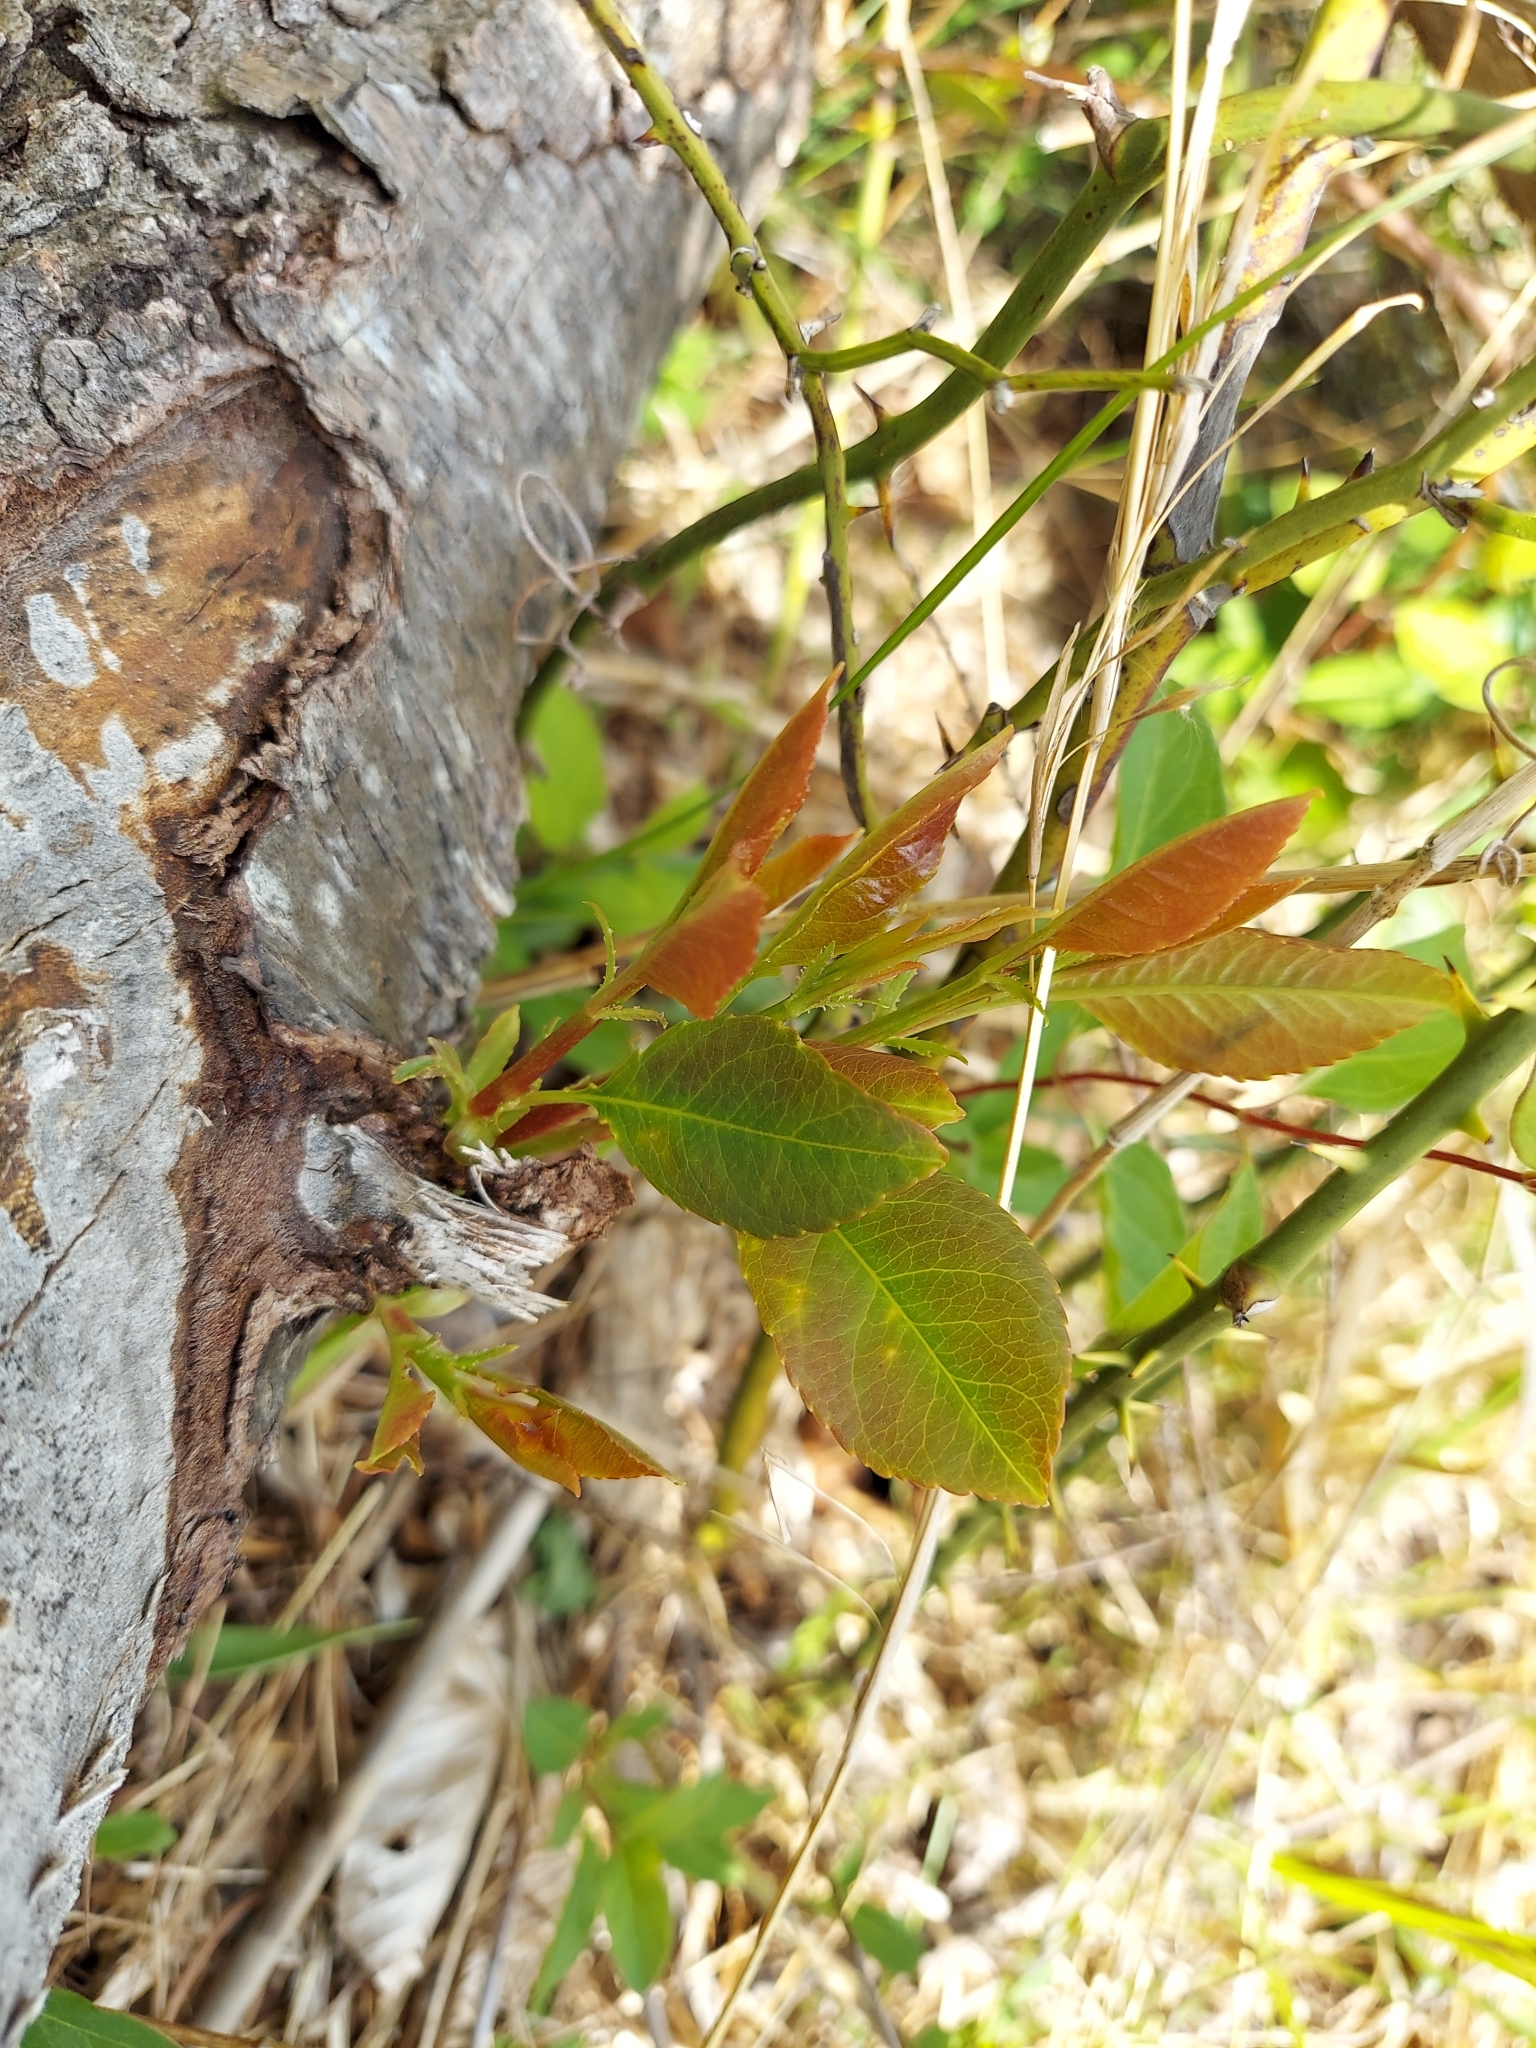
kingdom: Plantae
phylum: Tracheophyta
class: Magnoliopsida
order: Rosales
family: Rosaceae
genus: Prunus
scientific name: Prunus virginiana
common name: Chokecherry
